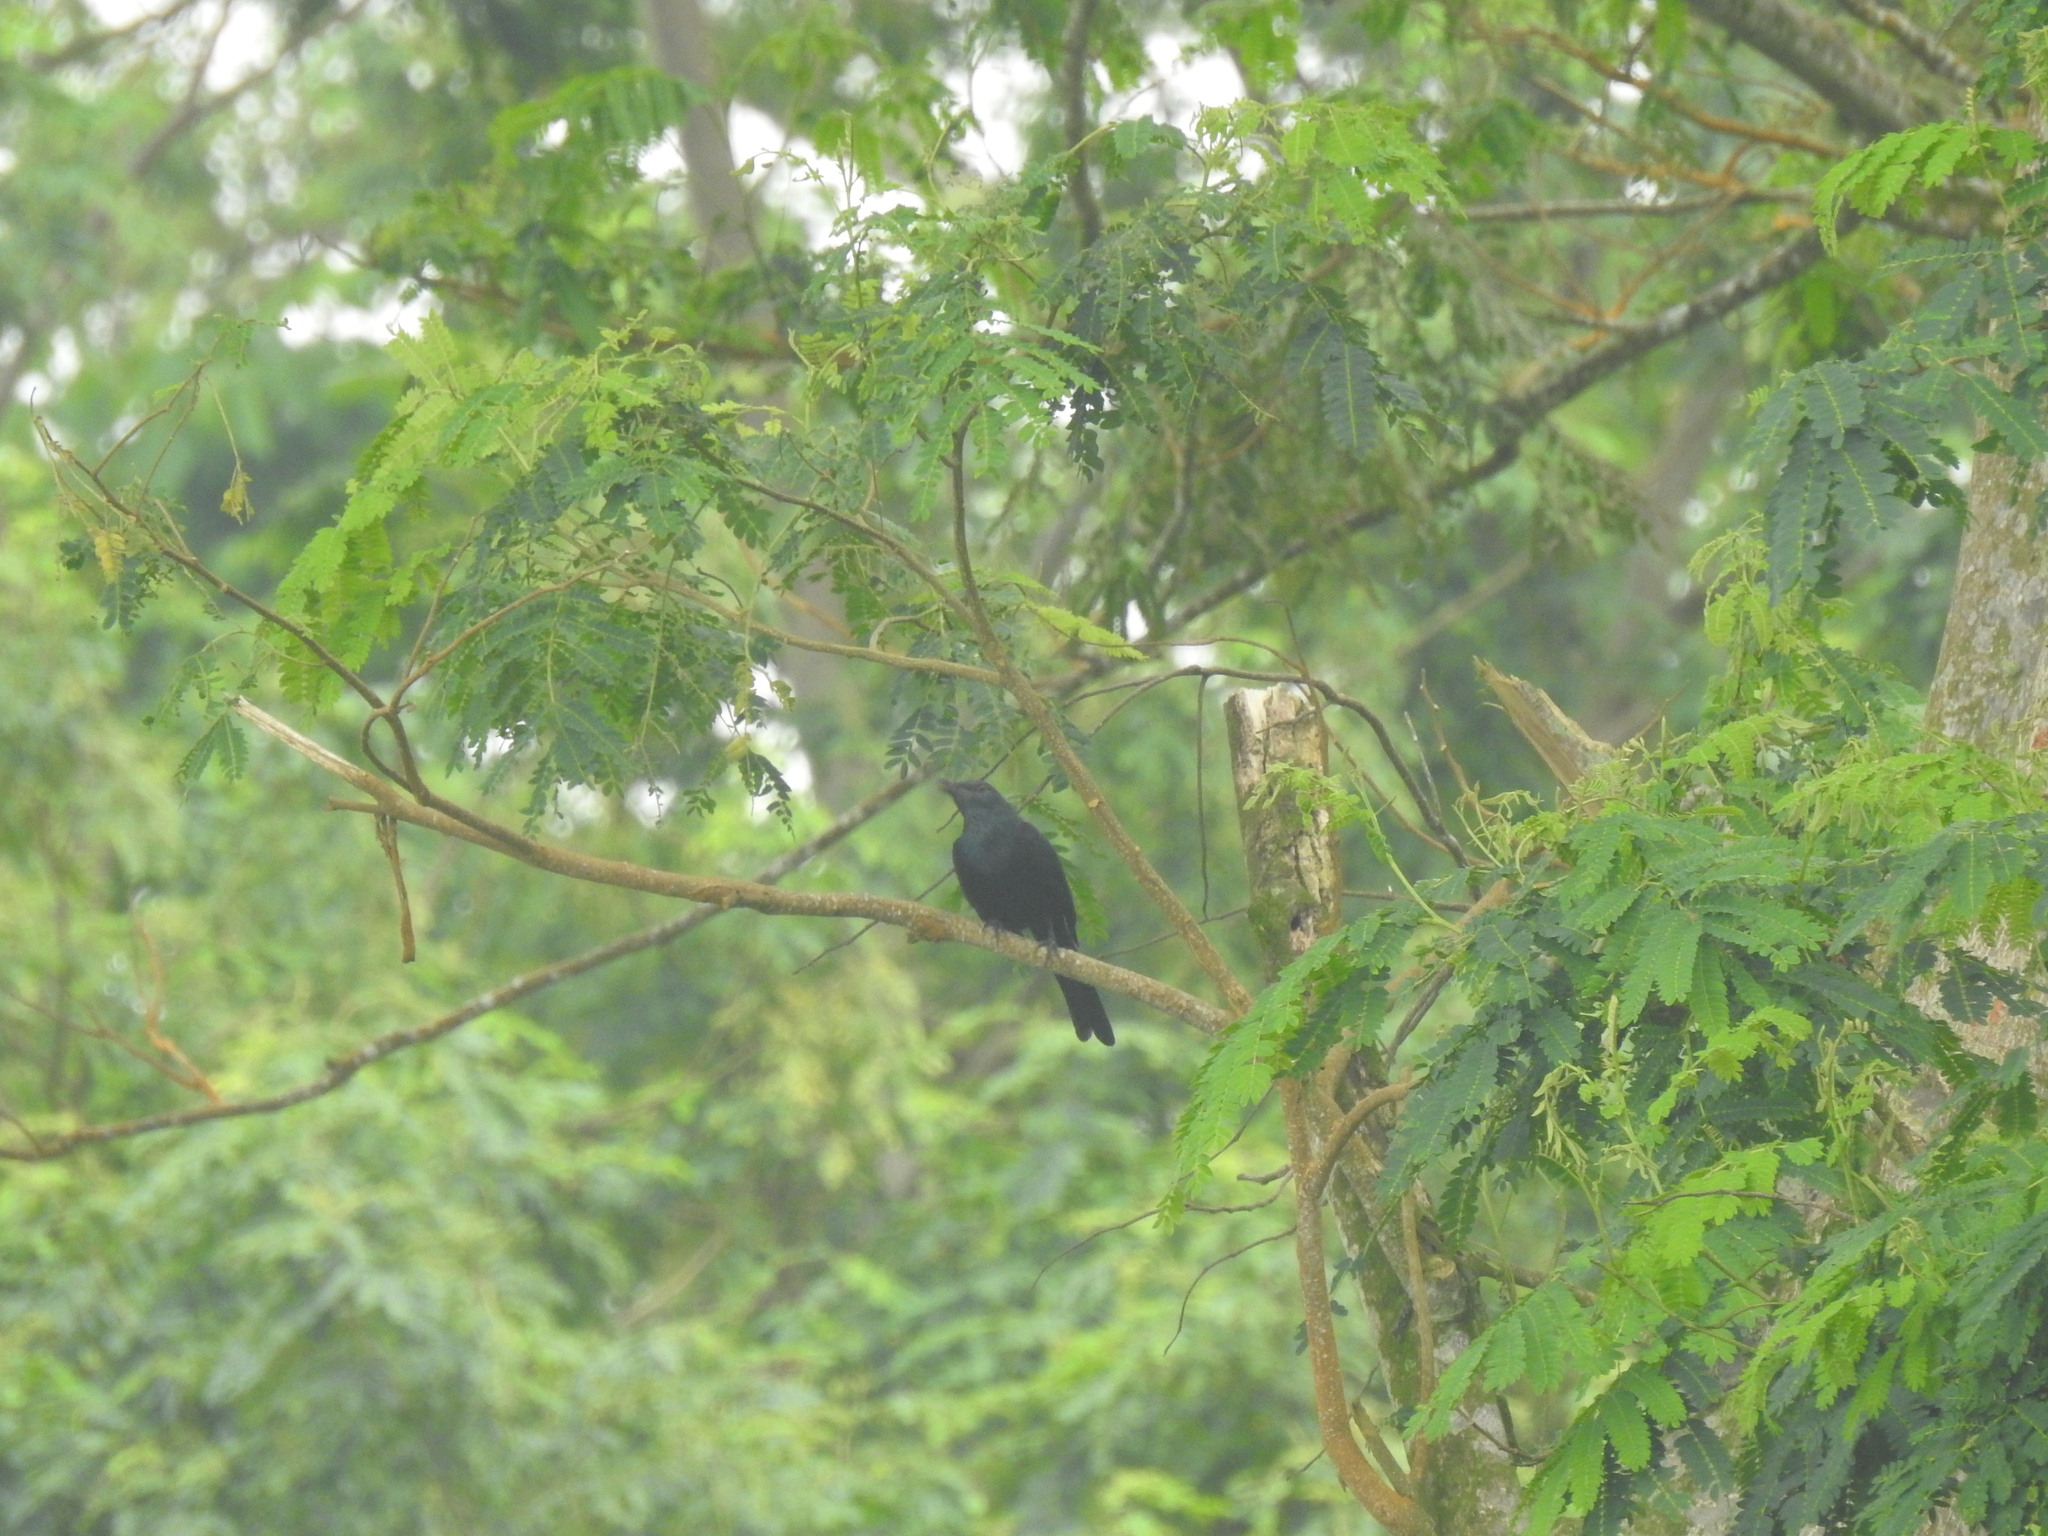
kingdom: Animalia
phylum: Chordata
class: Aves
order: Passeriformes
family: Sturnidae
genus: Onychognathus
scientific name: Onychognathus fulgidus
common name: Chestnut-winged starling
